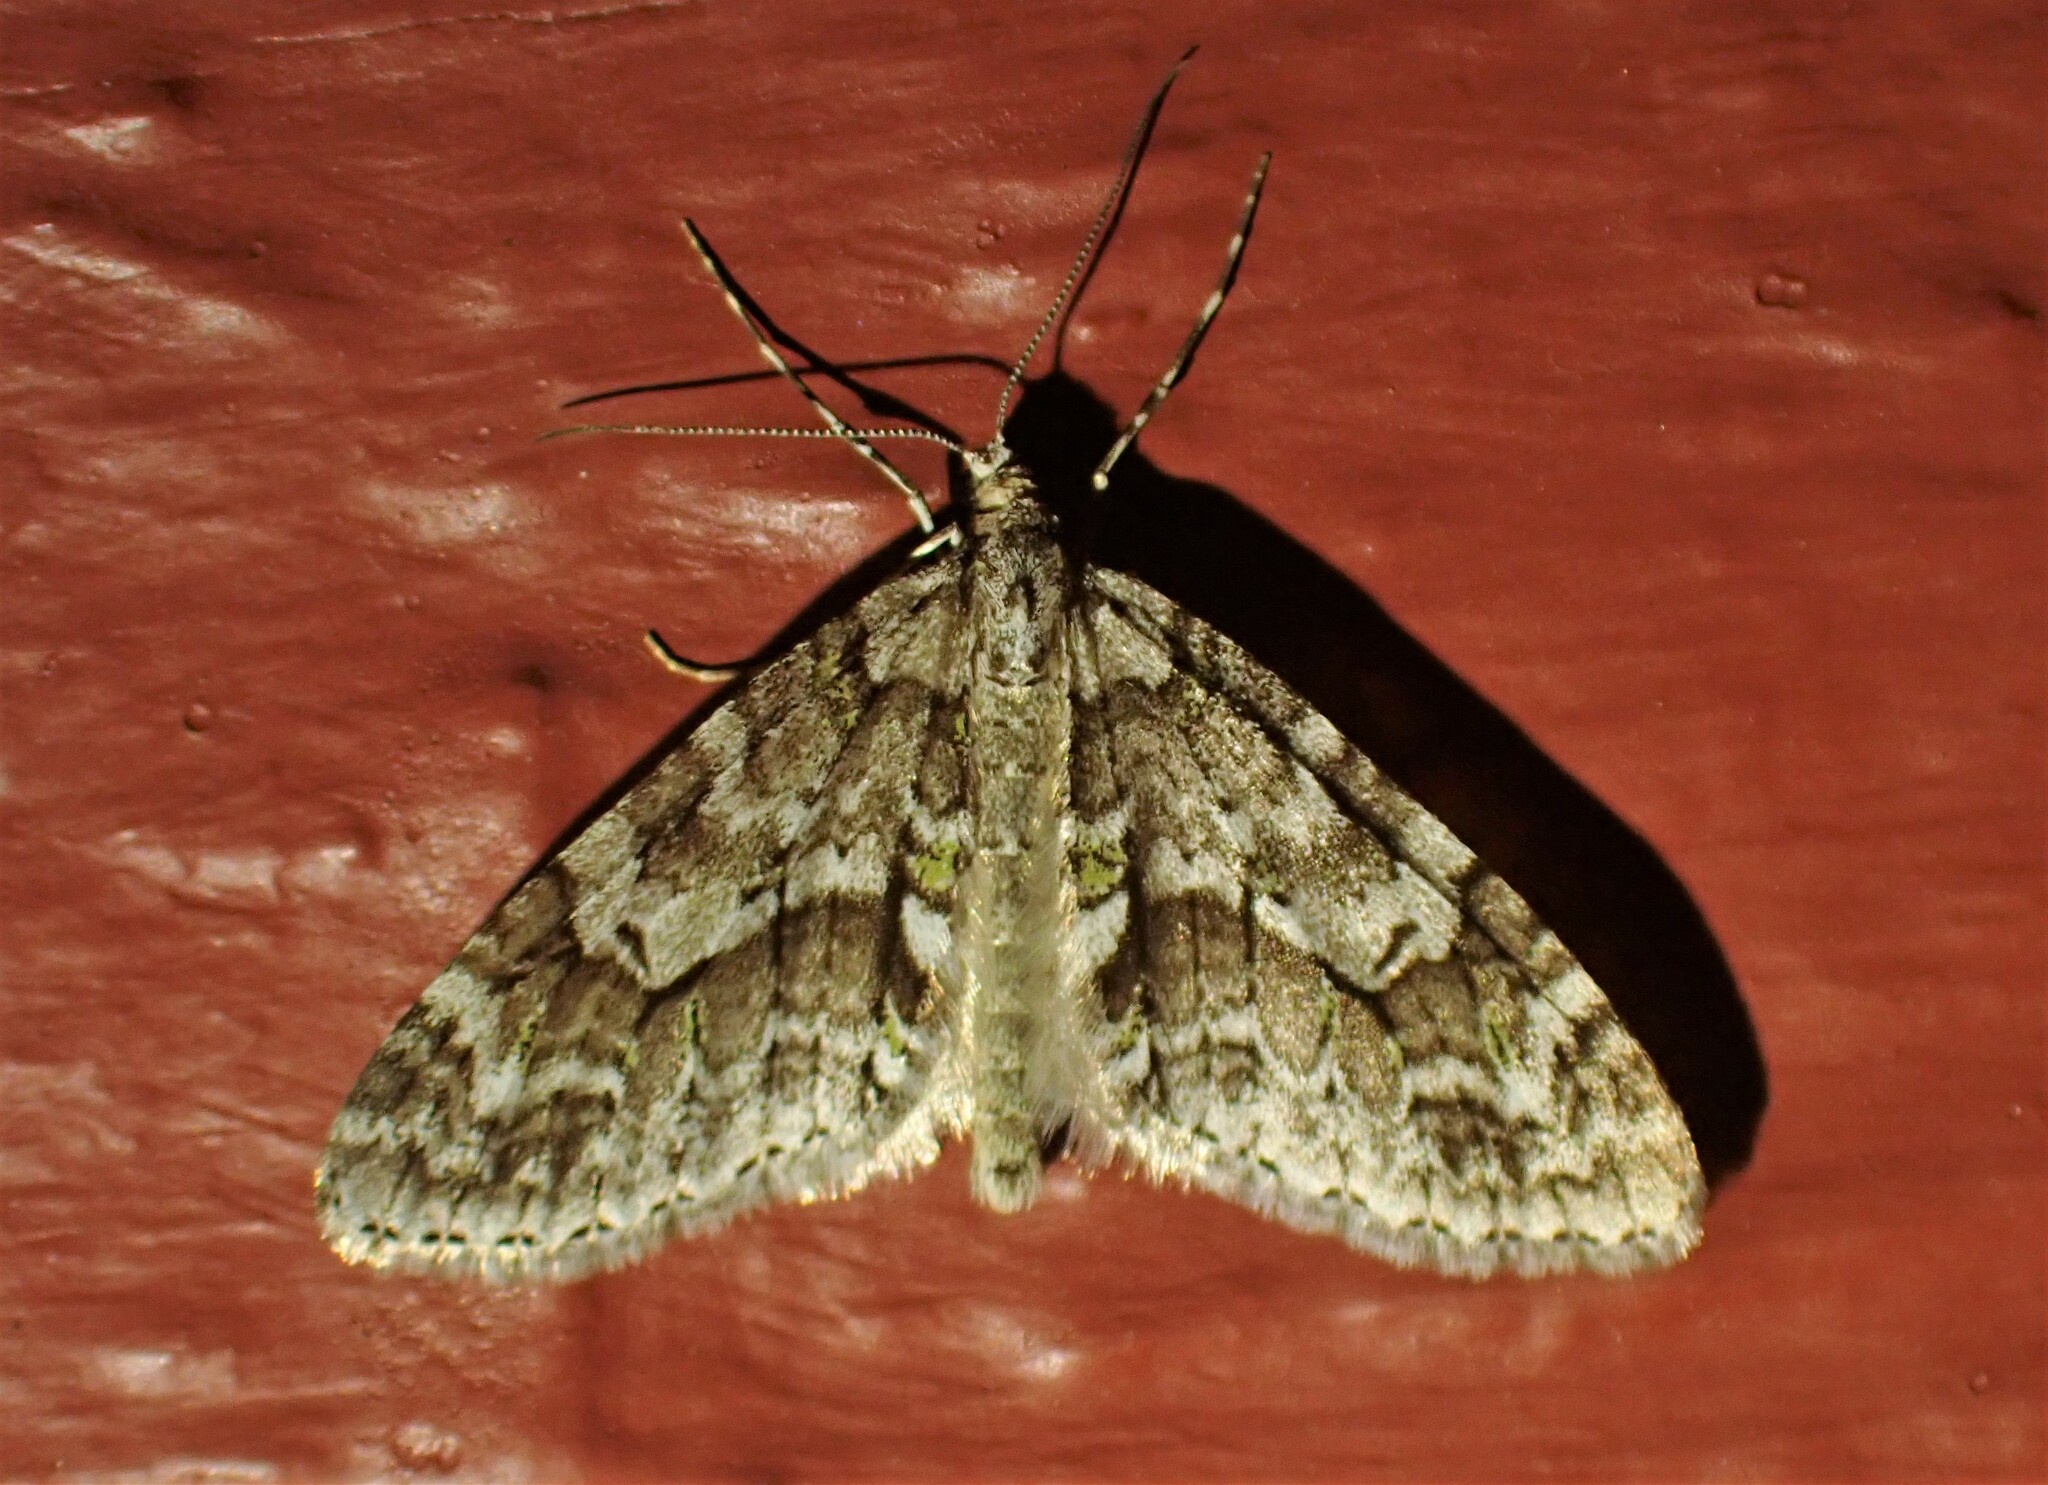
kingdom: Animalia
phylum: Arthropoda
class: Insecta
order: Lepidoptera
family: Geometridae
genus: Cladara
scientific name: Cladara limitaria
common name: Mottled gray carpet
